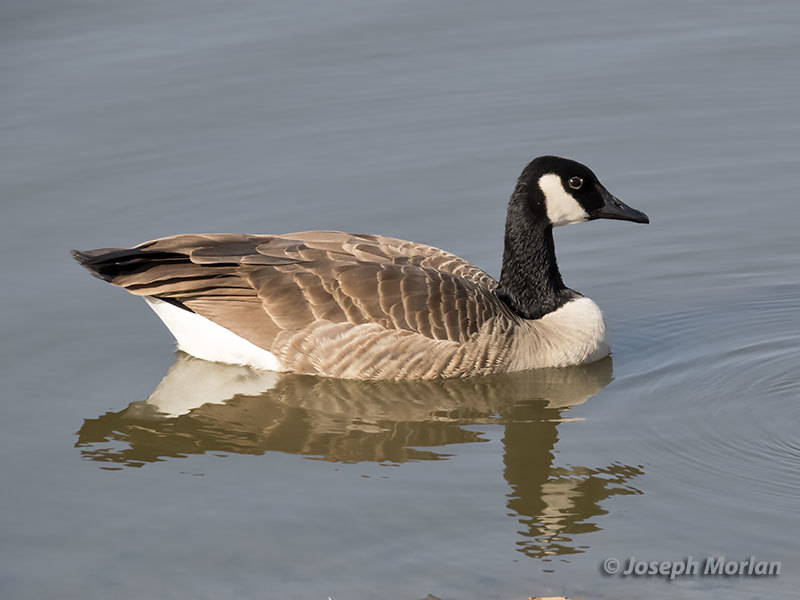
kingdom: Animalia
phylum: Chordata
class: Aves
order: Anseriformes
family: Anatidae
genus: Branta
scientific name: Branta canadensis
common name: Canada goose
